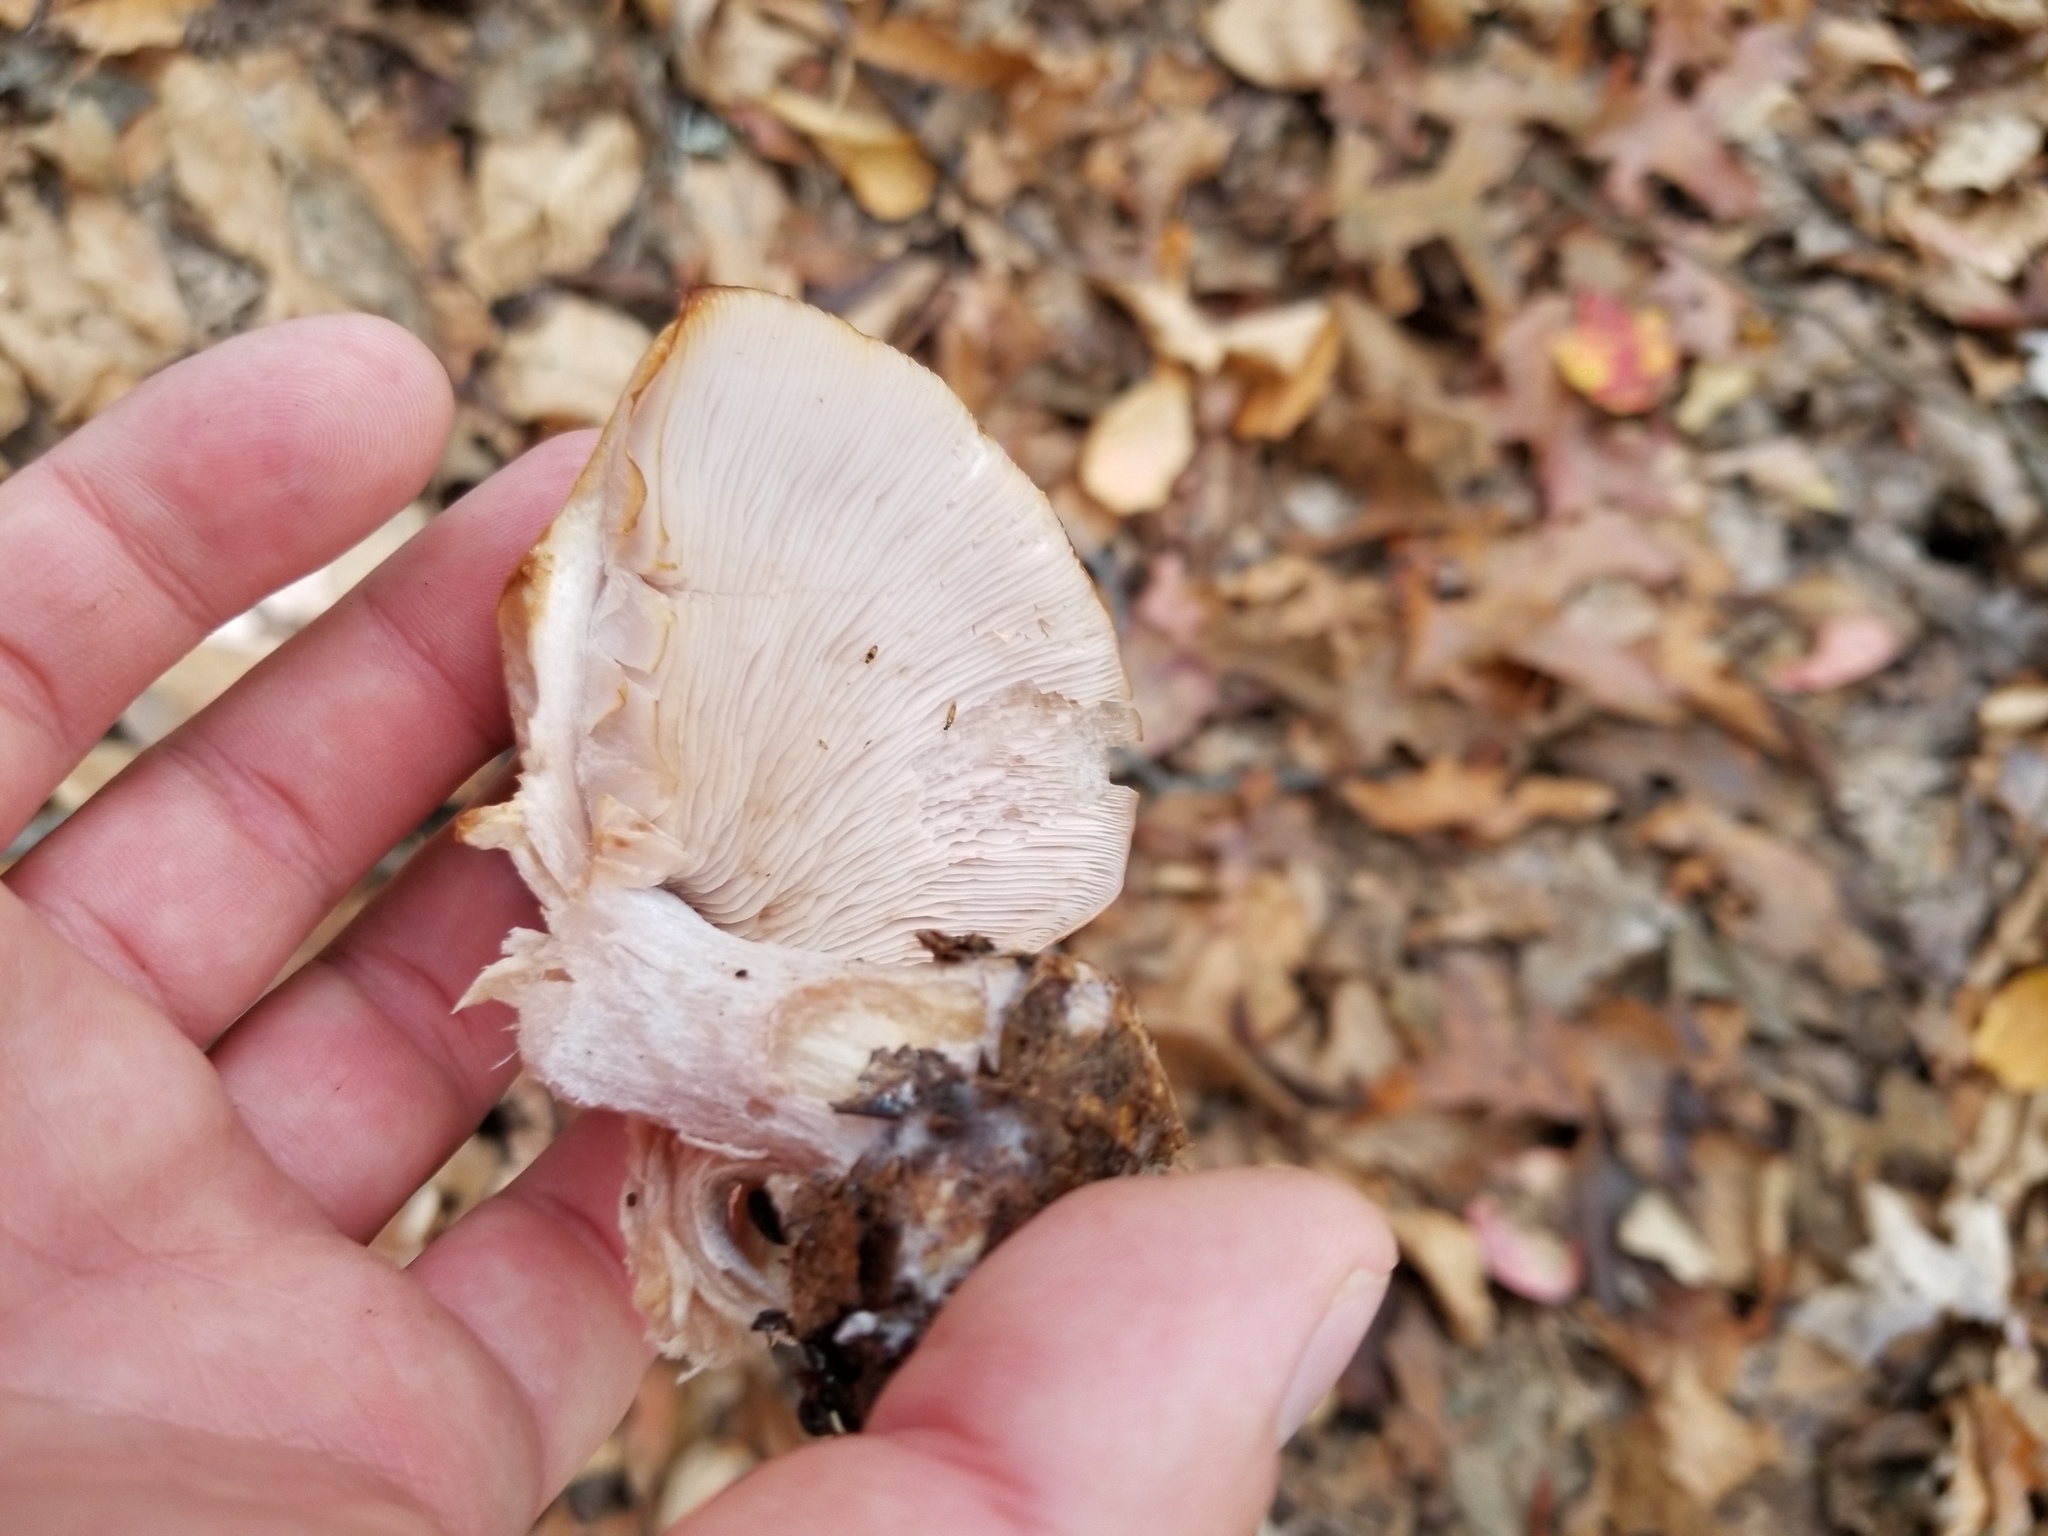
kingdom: Fungi
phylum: Basidiomycota
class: Agaricomycetes
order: Agaricales
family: Tricholomataceae
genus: Collybia
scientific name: Collybia
